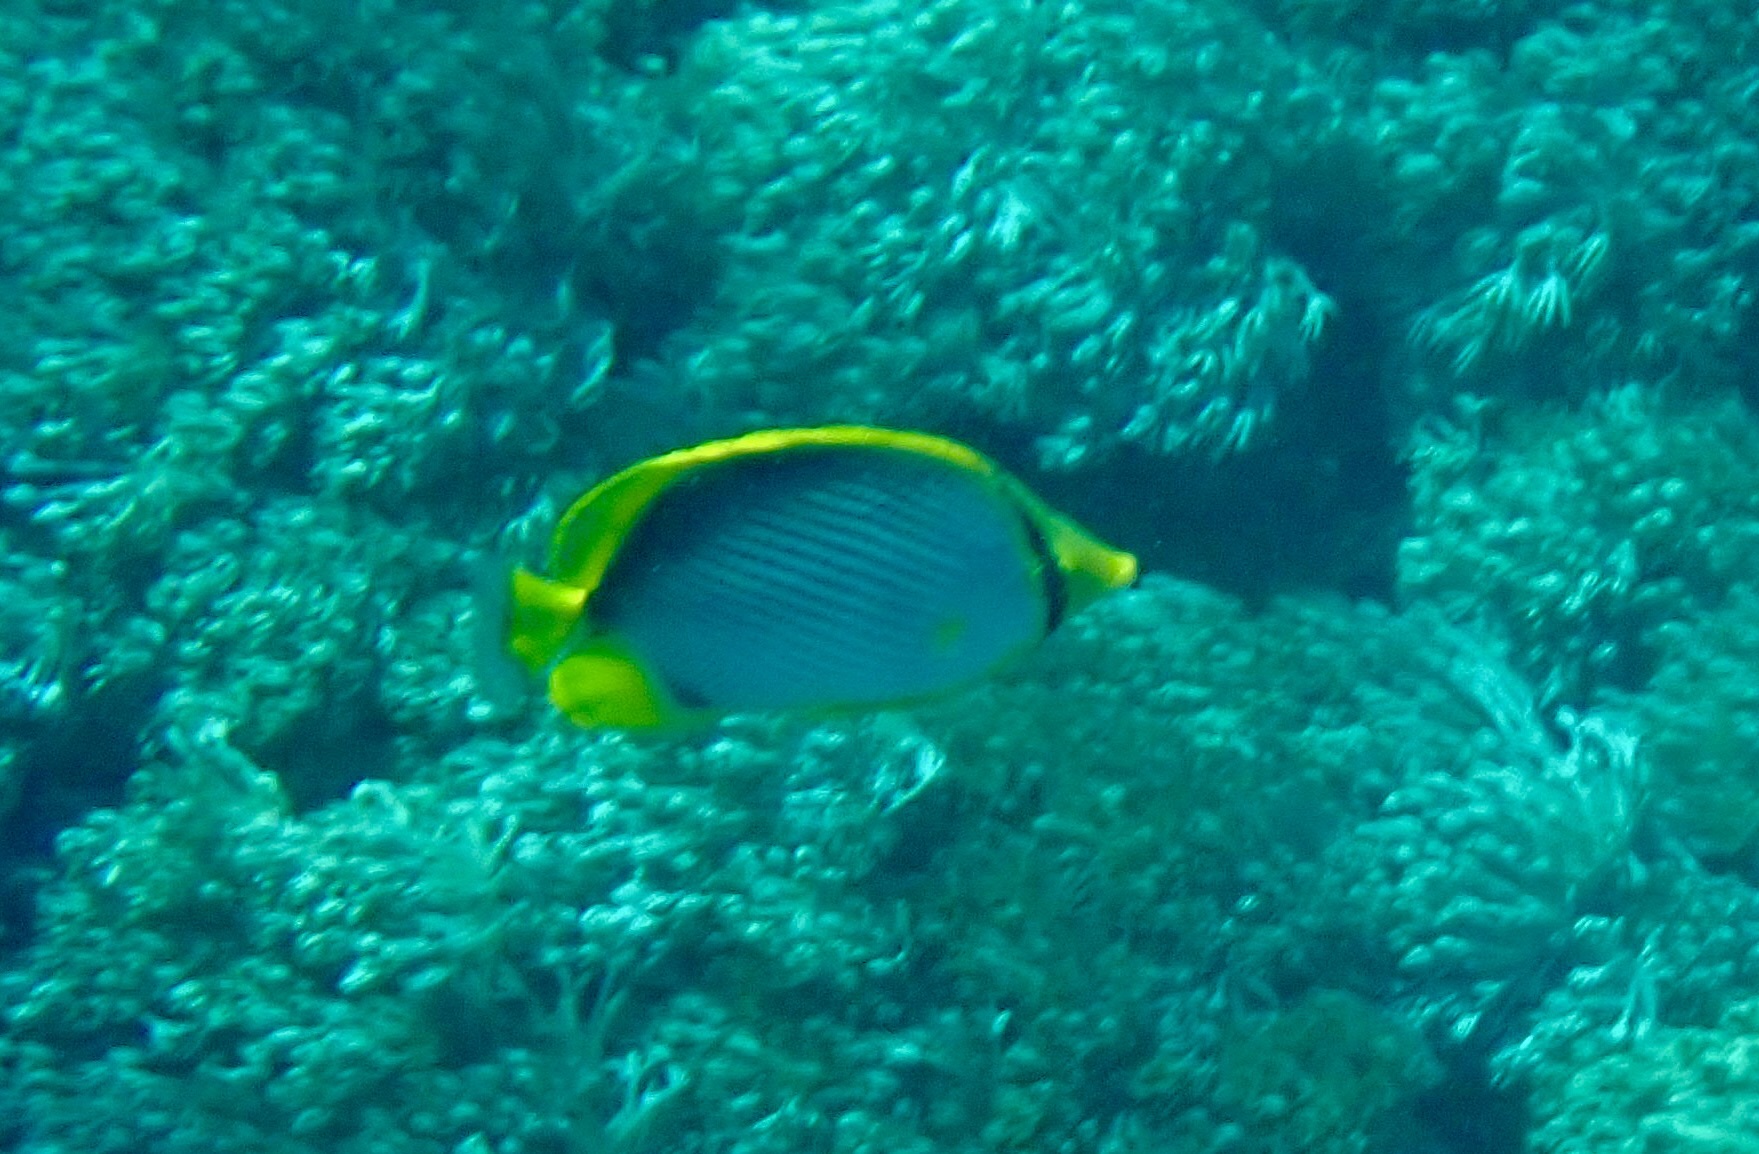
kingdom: Animalia
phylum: Chordata
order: Perciformes
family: Chaetodontidae
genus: Chaetodon
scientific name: Chaetodon melannotus
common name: Blackback butterflyfish
